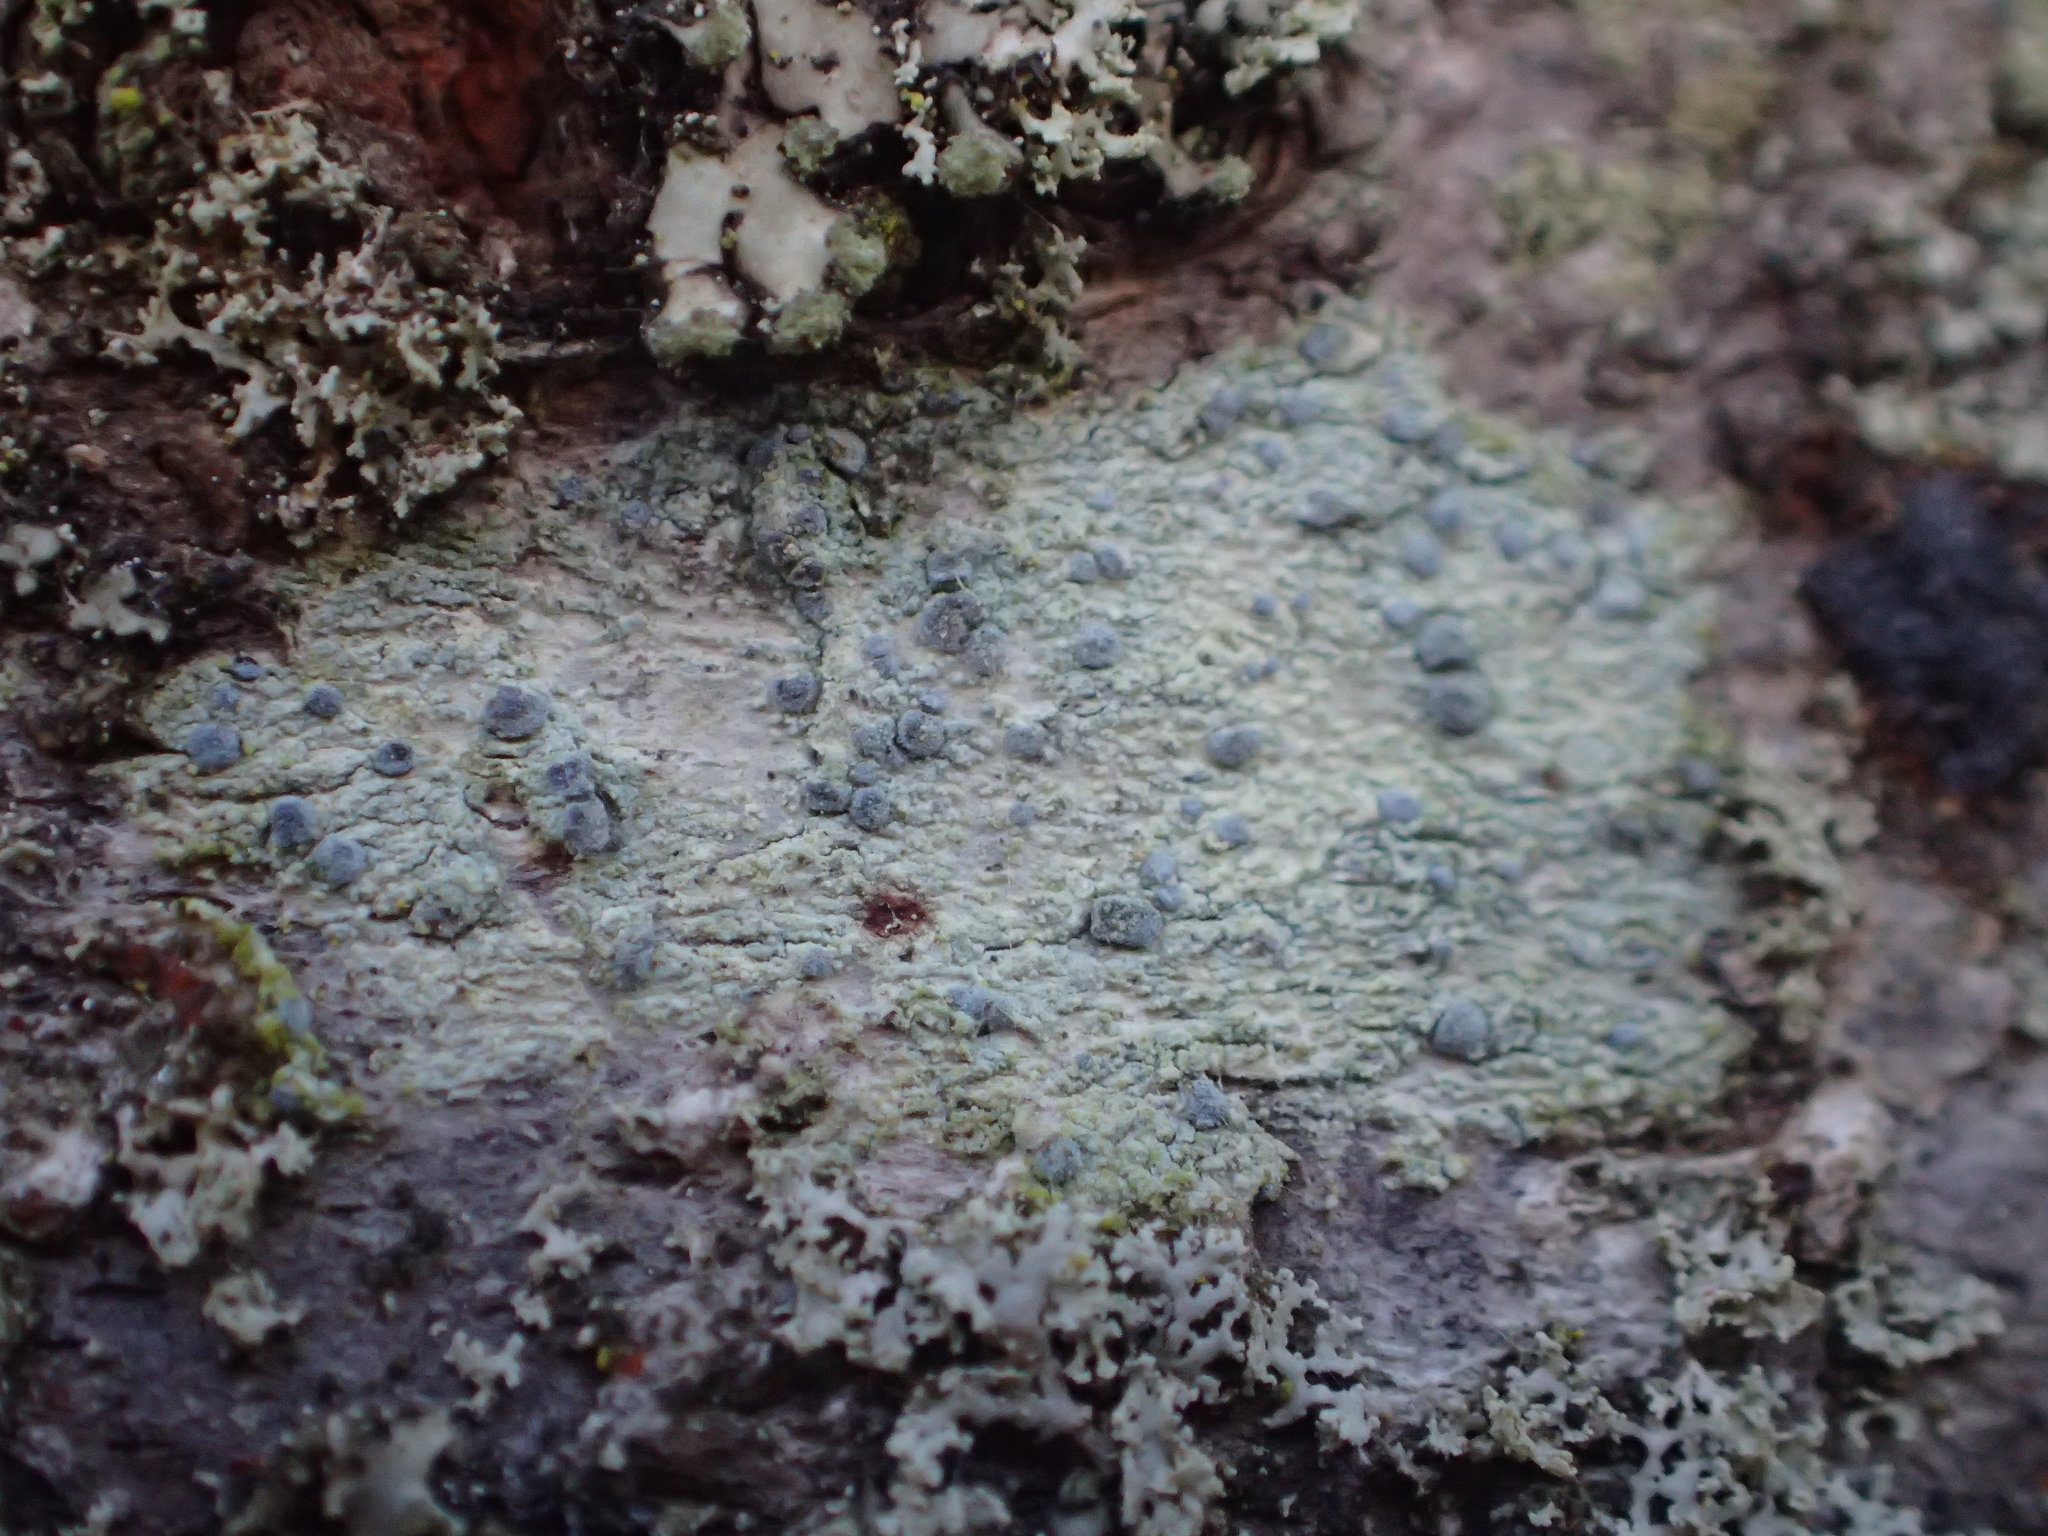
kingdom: Fungi
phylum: Ascomycota
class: Arthoniomycetes
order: Arthoniales
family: Chrysotrichaceae
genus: Chrysothrix
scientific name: Chrysothrix caesia
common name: Frosted comma lichen
